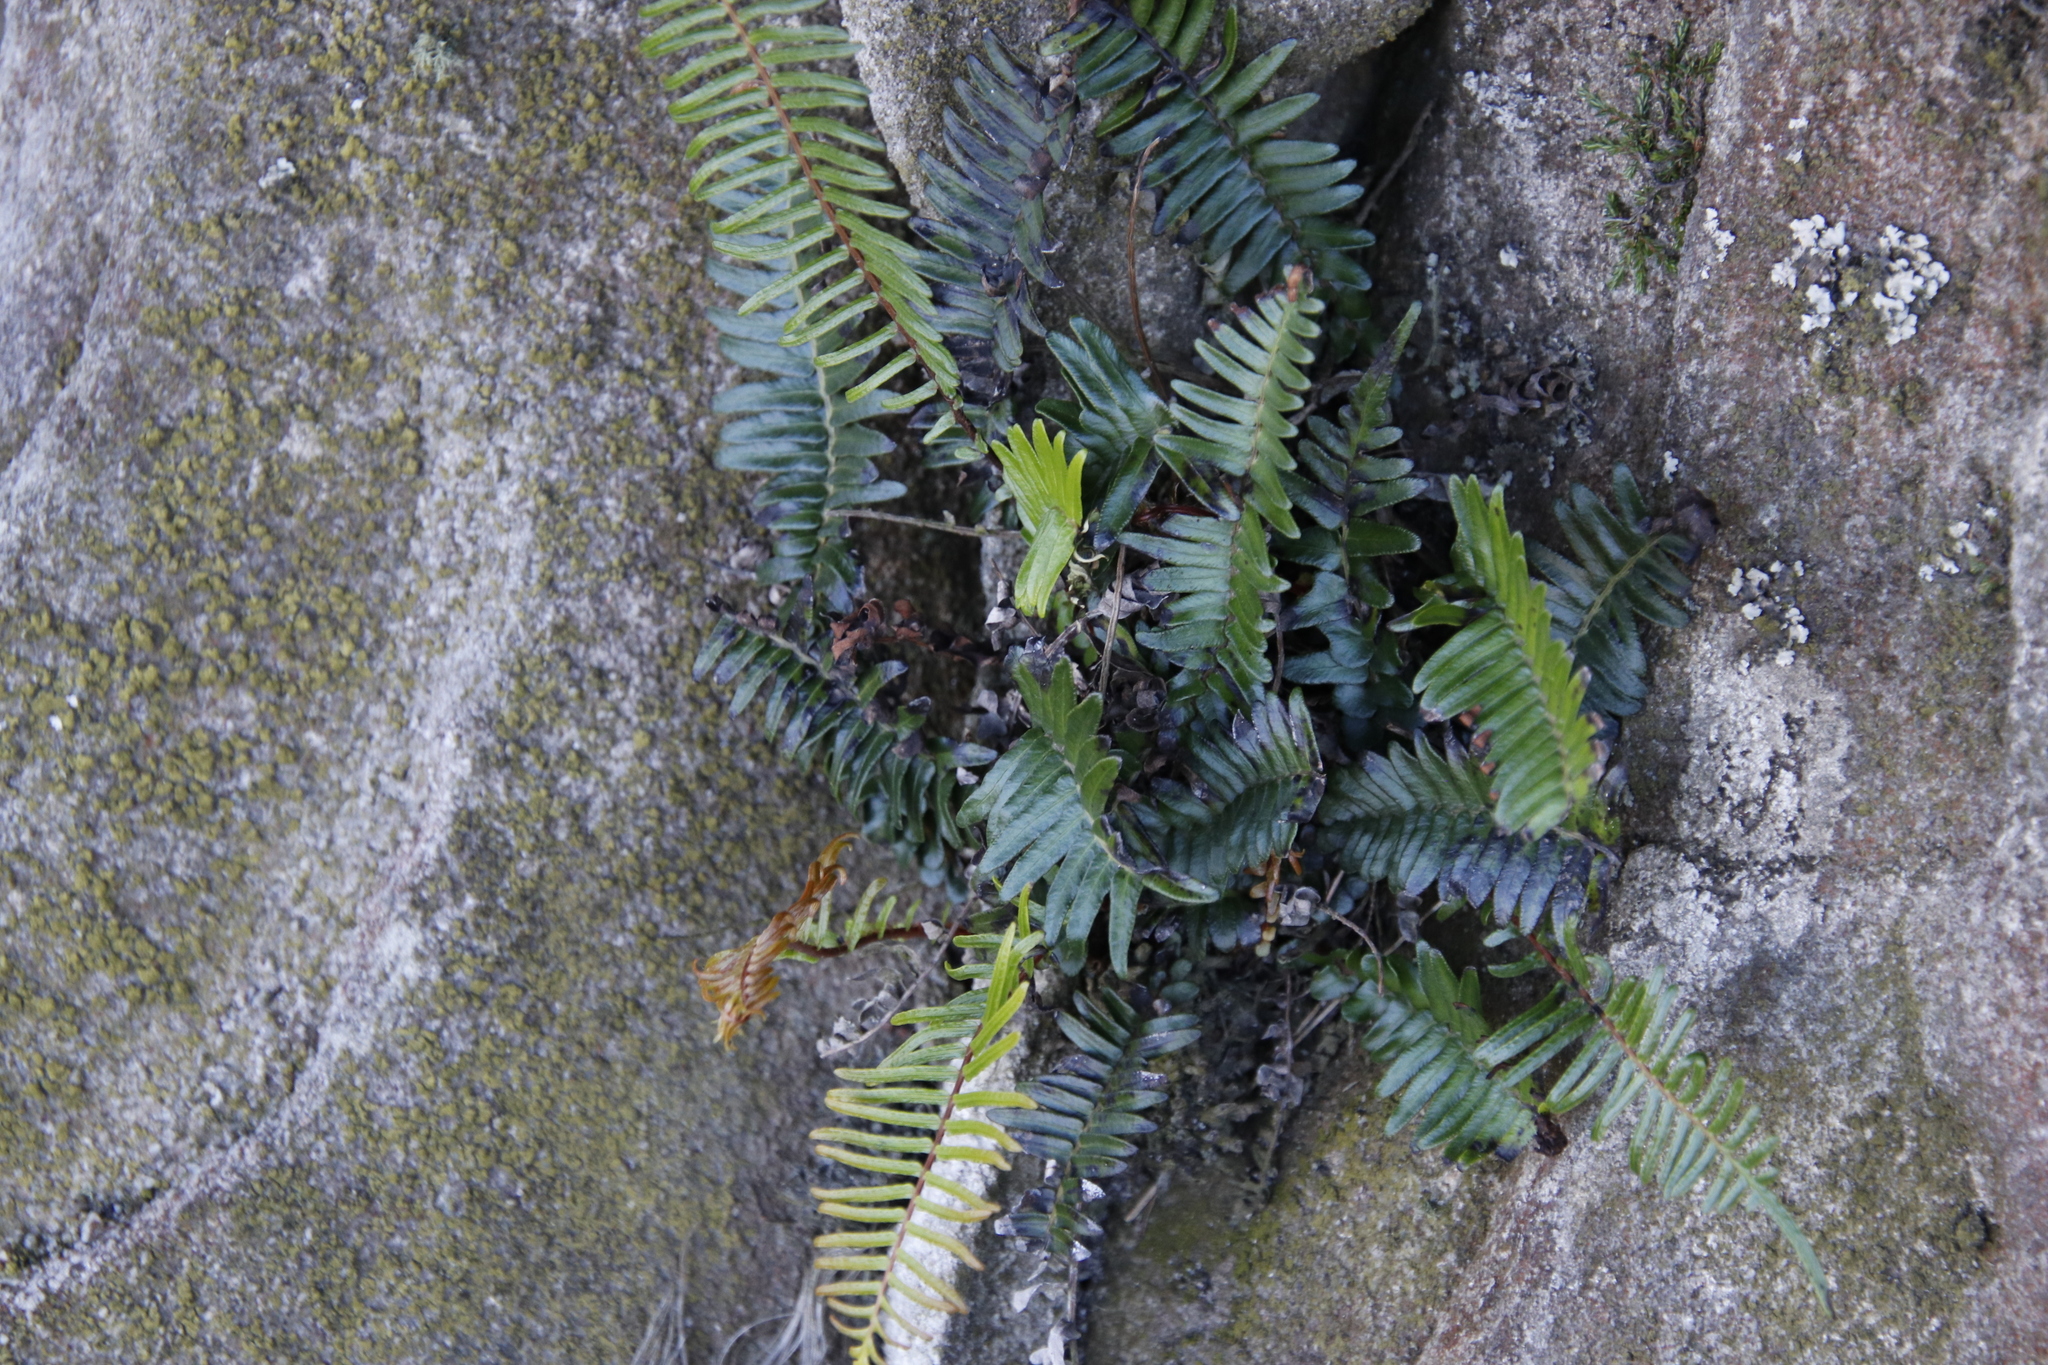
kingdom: Plantae
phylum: Tracheophyta
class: Polypodiopsida
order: Polypodiales
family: Blechnaceae
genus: Blechnum
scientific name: Blechnum punctulatum
